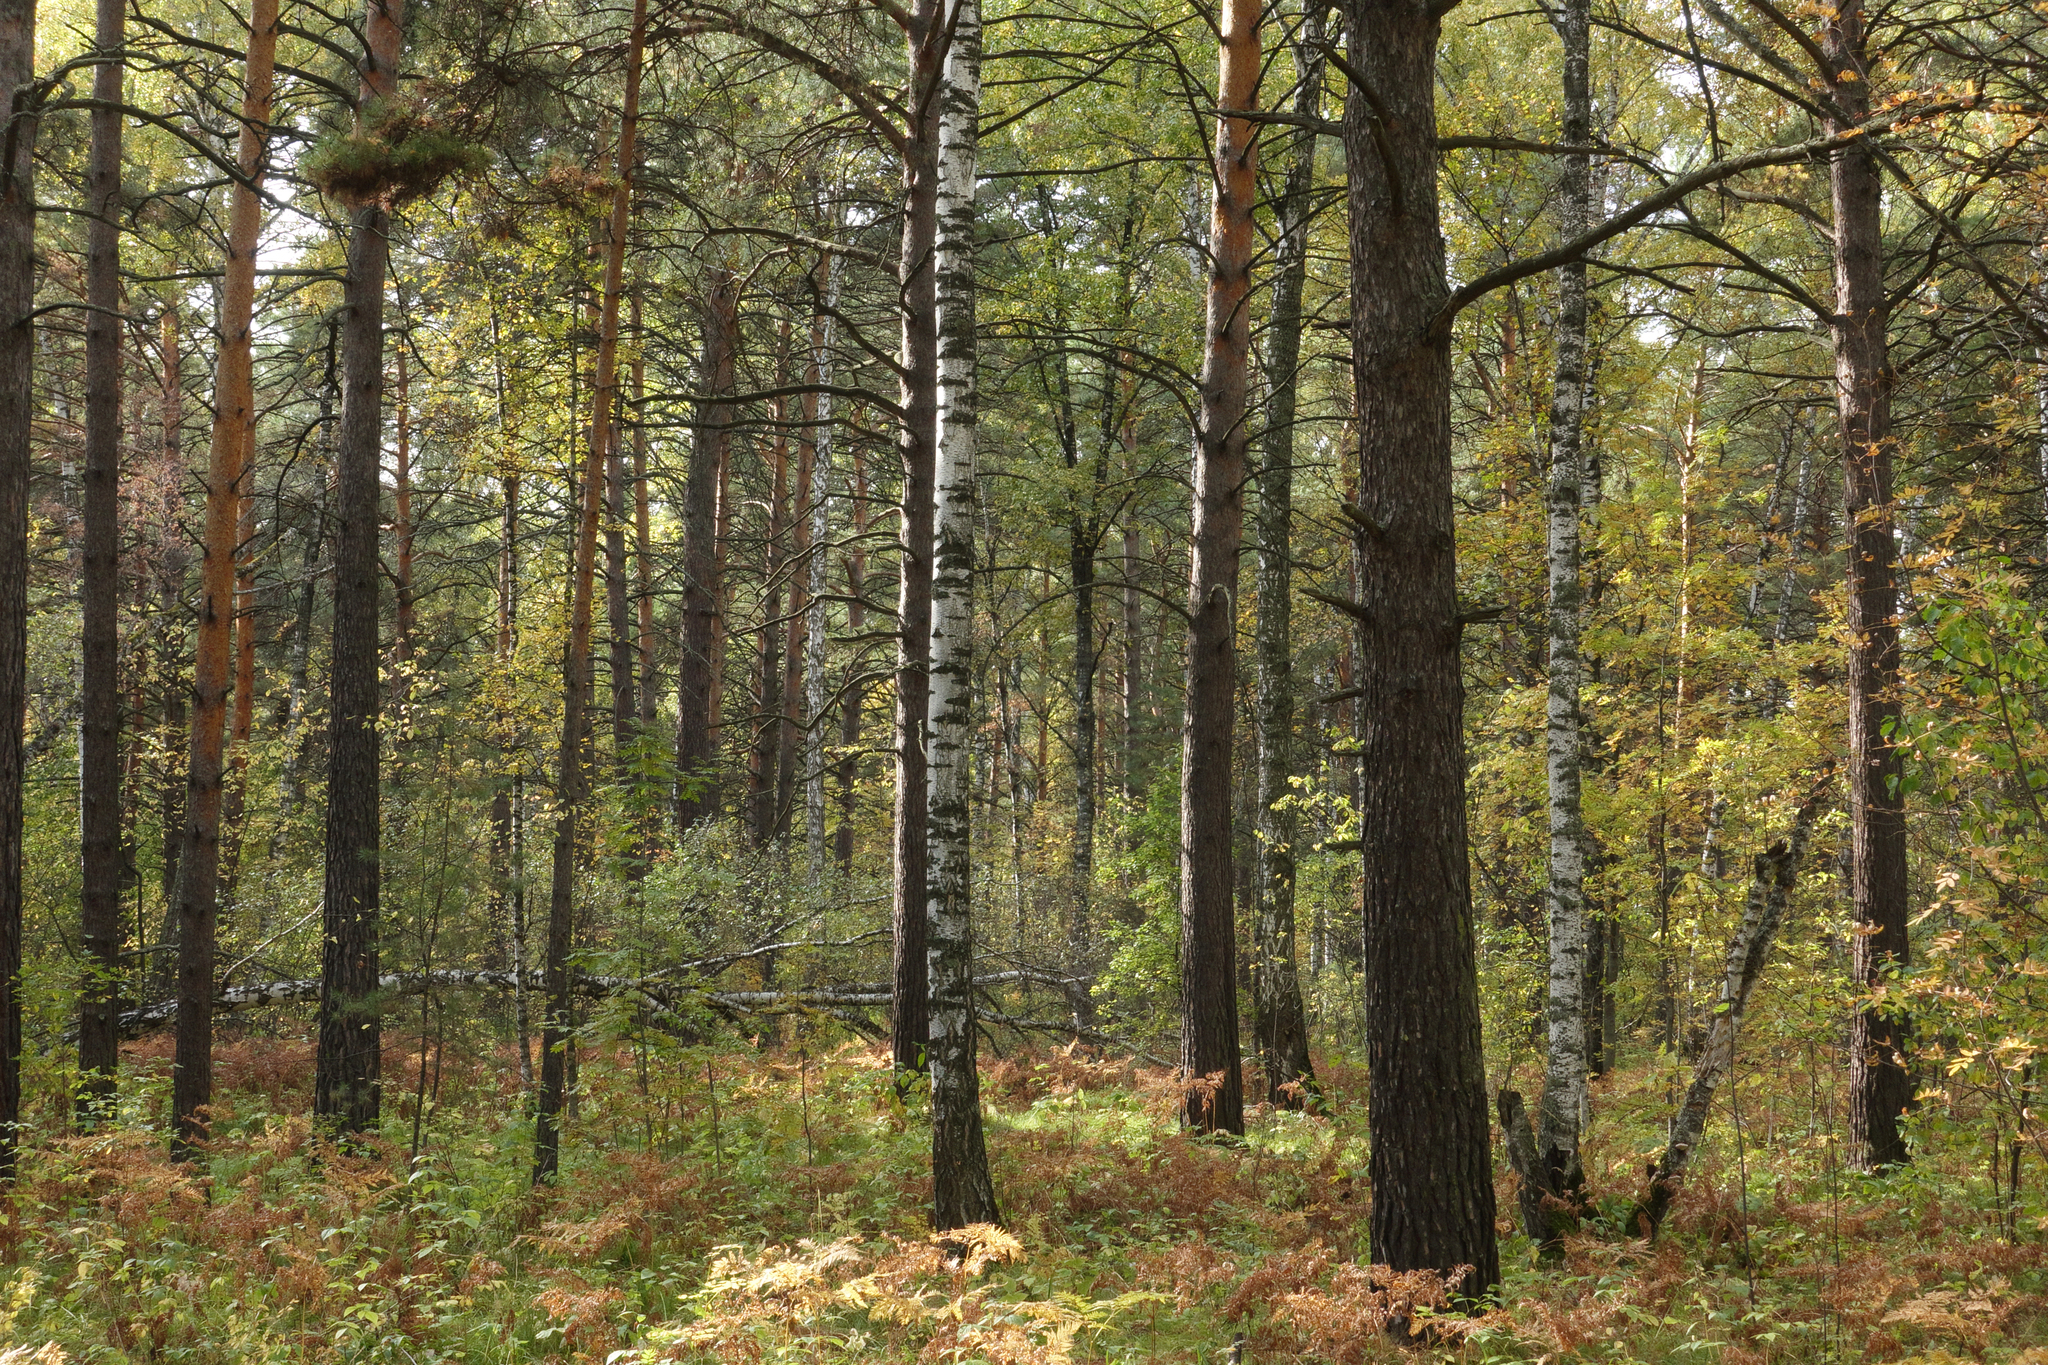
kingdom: Plantae
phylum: Tracheophyta
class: Pinopsida
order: Pinales
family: Pinaceae
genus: Pinus
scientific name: Pinus sylvestris
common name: Scots pine
